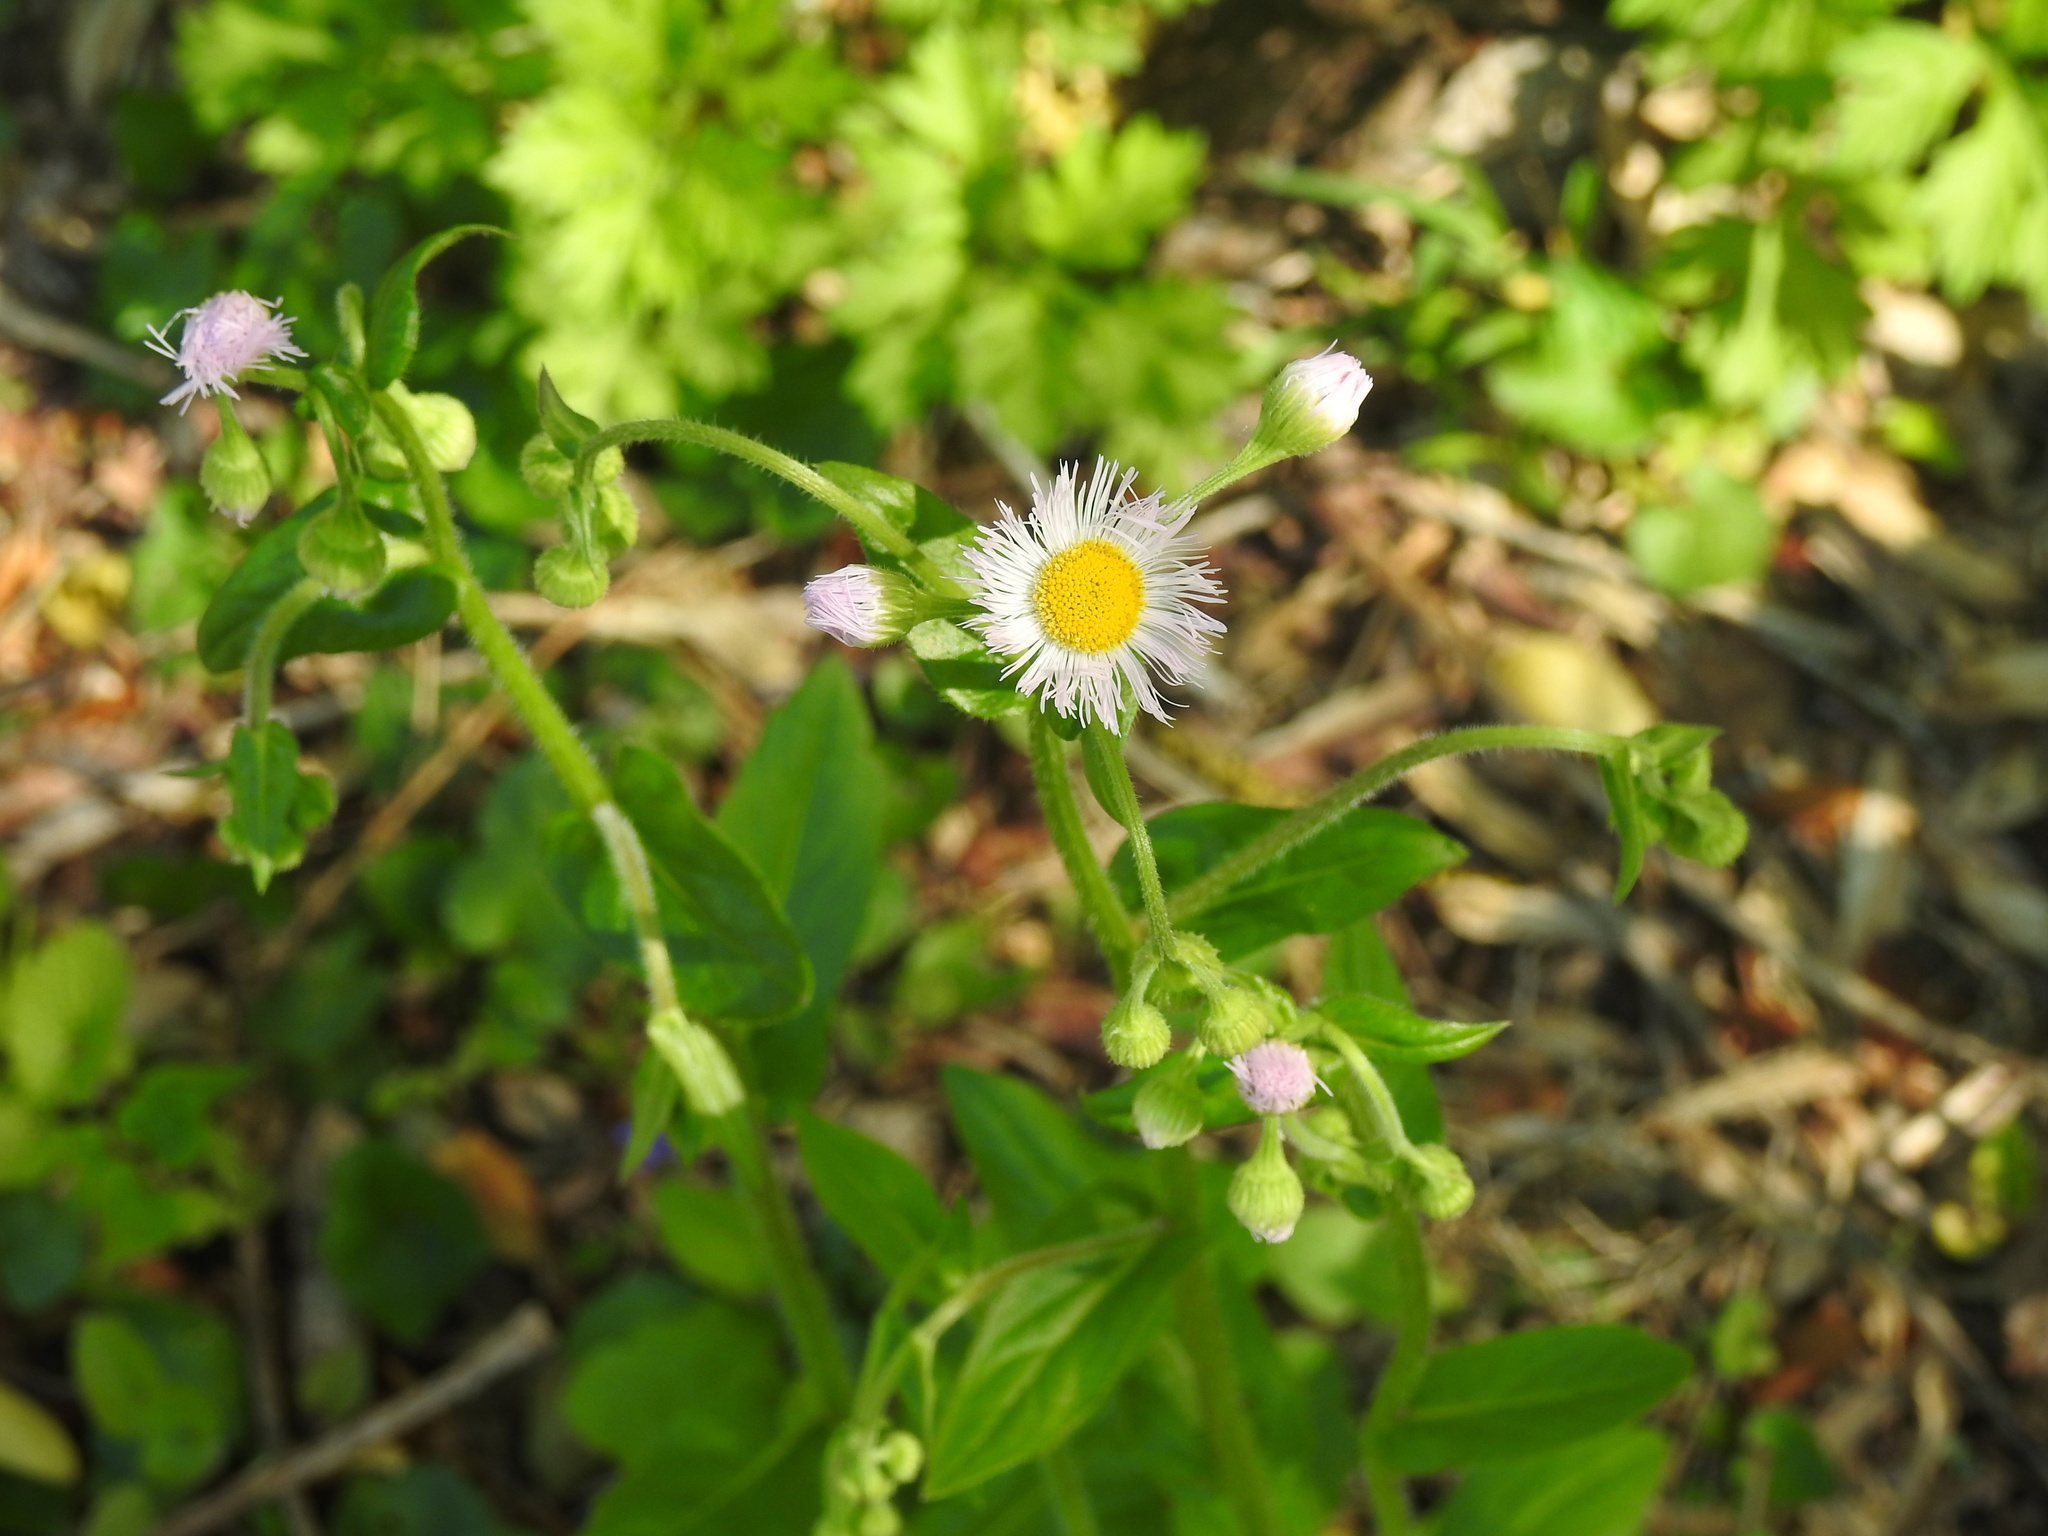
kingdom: Plantae
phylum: Tracheophyta
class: Magnoliopsida
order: Asterales
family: Asteraceae
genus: Erigeron
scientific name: Erigeron philadelphicus
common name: Robin's-plantain
